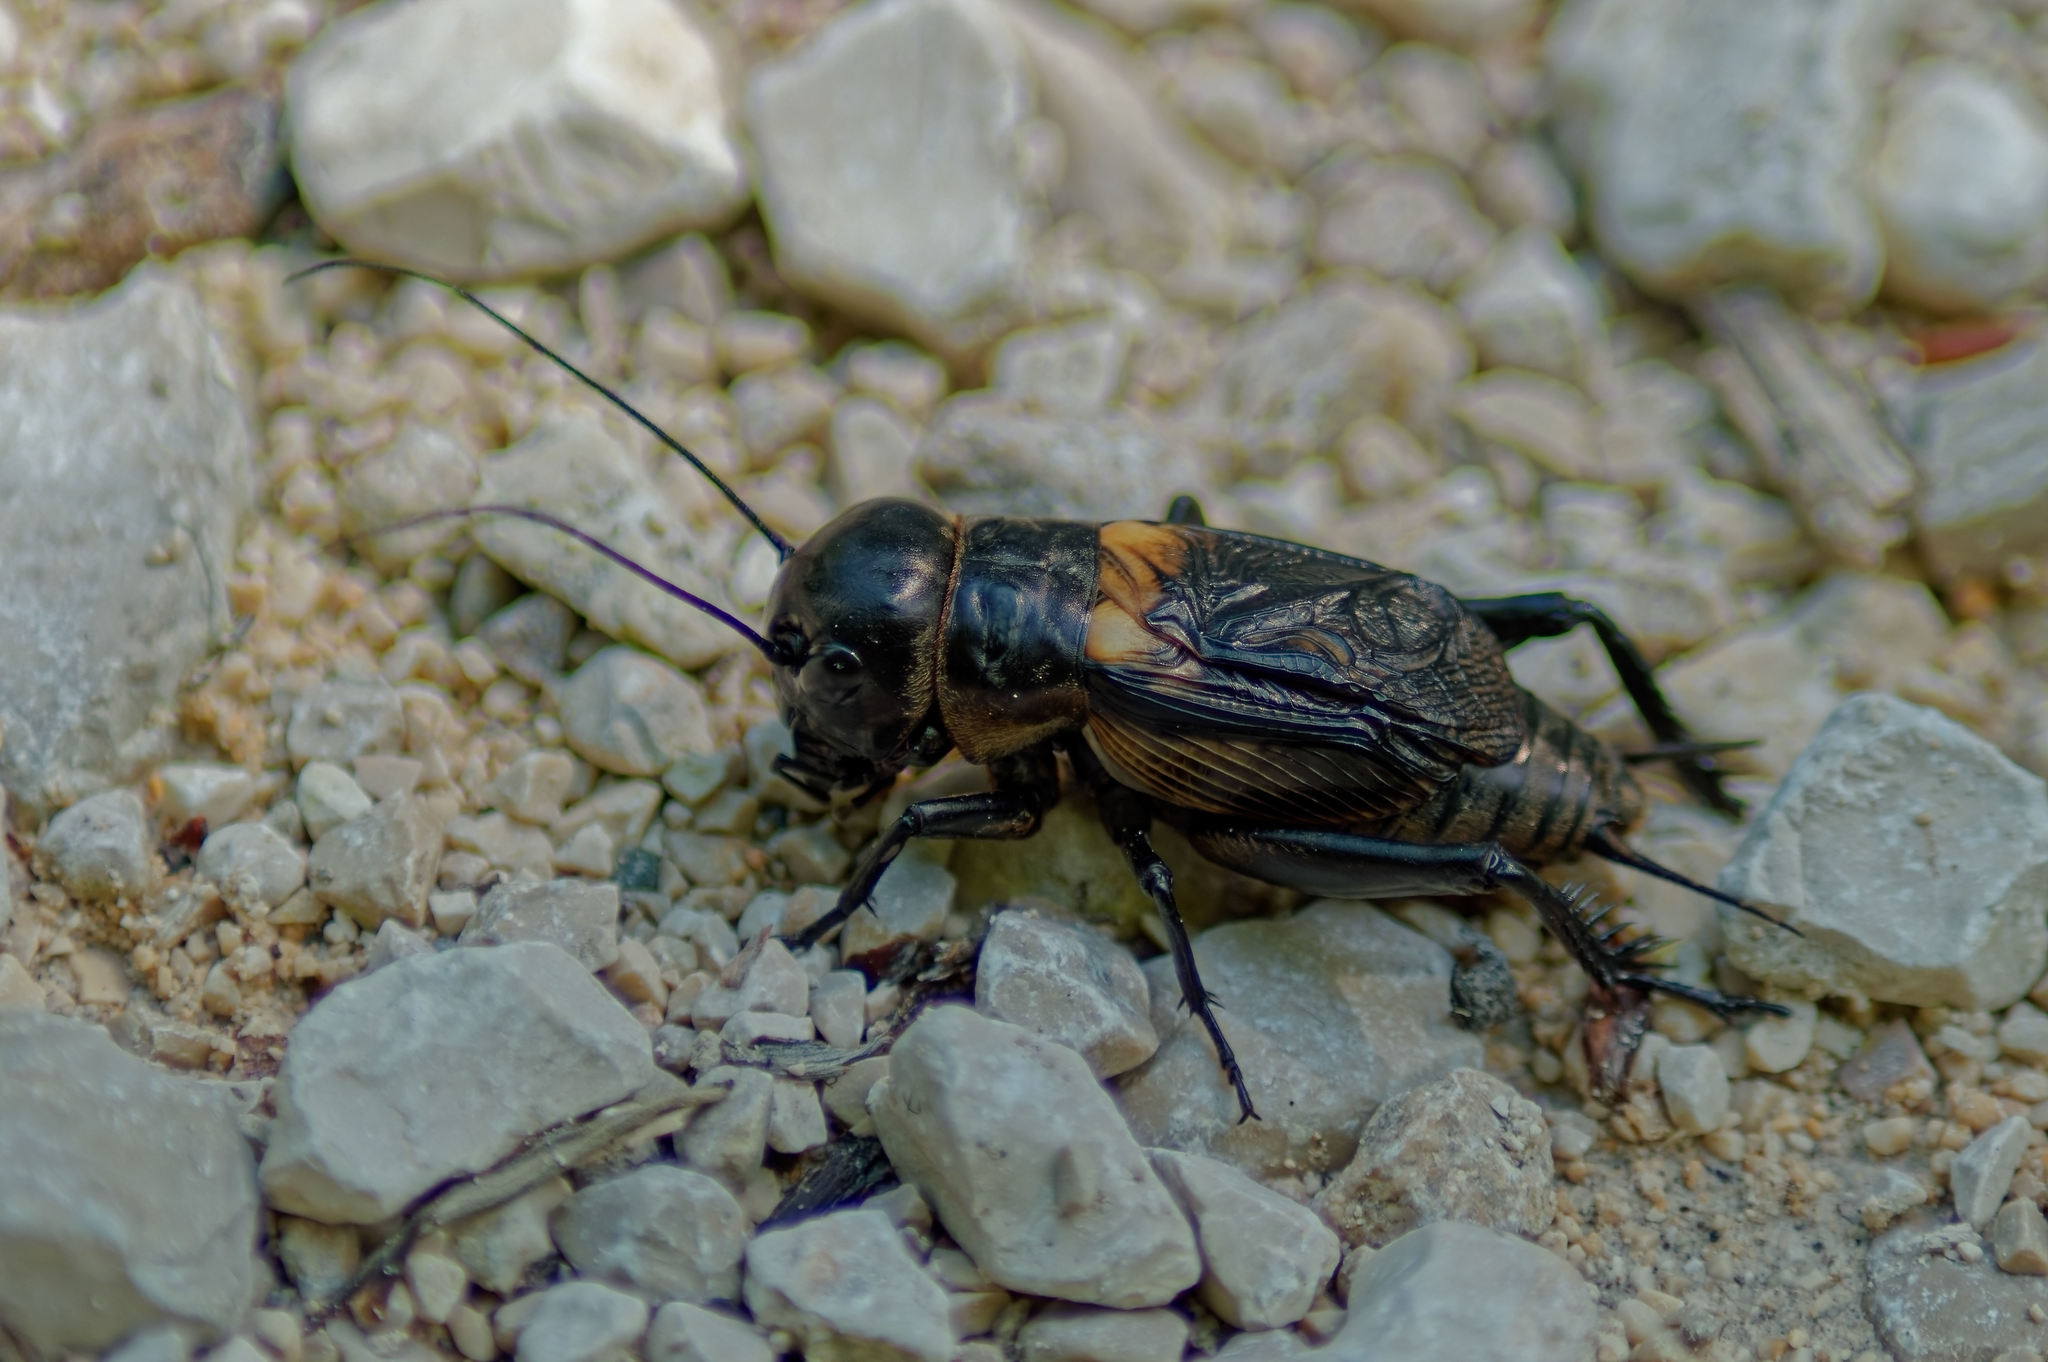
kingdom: Animalia
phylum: Arthropoda
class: Insecta
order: Orthoptera
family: Gryllidae
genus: Gryllus
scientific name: Gryllus campestris
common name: Field cricket
